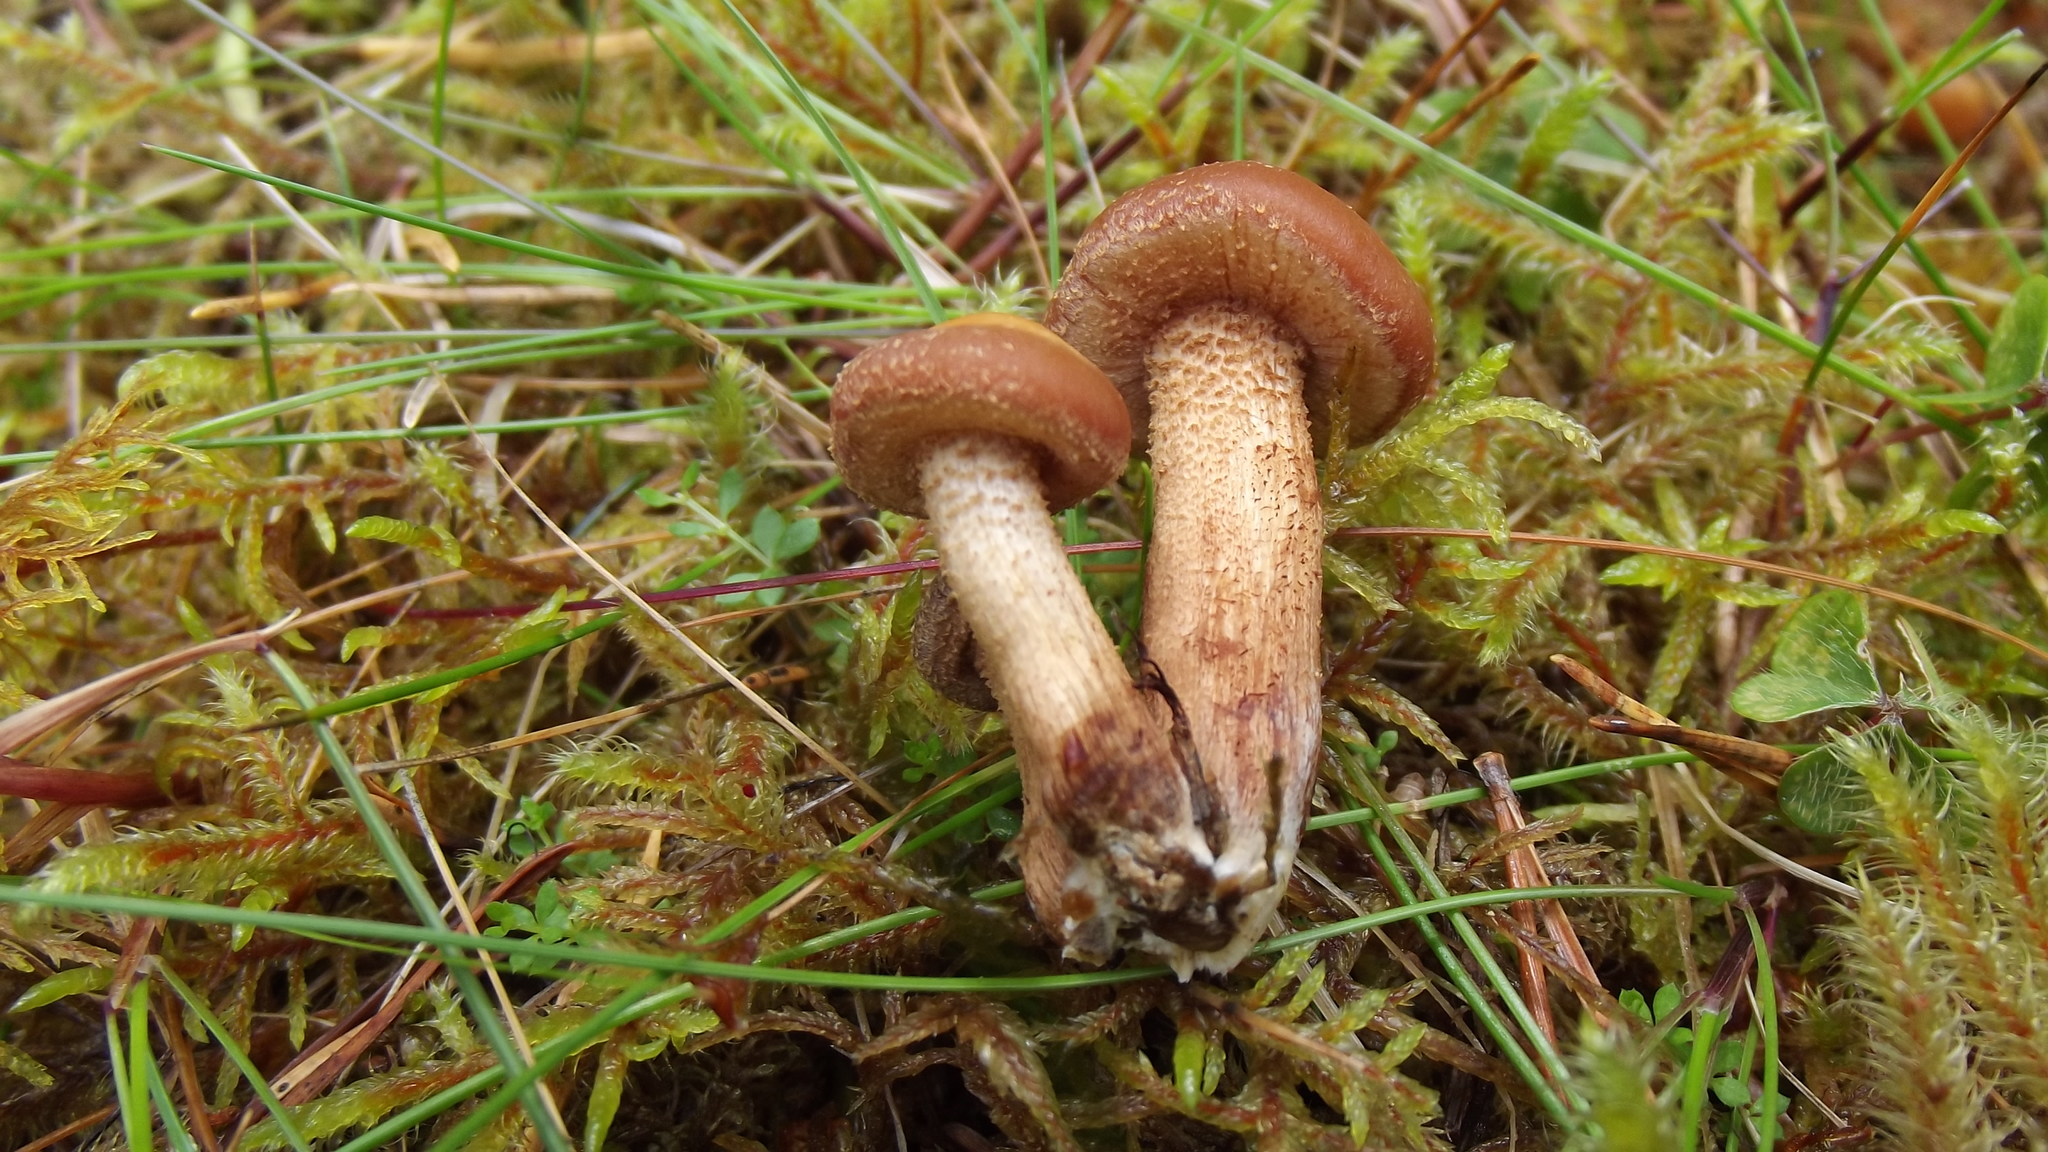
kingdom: Fungi
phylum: Basidiomycota
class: Agaricomycetes
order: Agaricales
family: Strophariaceae
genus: Kuehneromyces
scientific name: Kuehneromyces mutabilis
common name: Sheathed woodtuft
